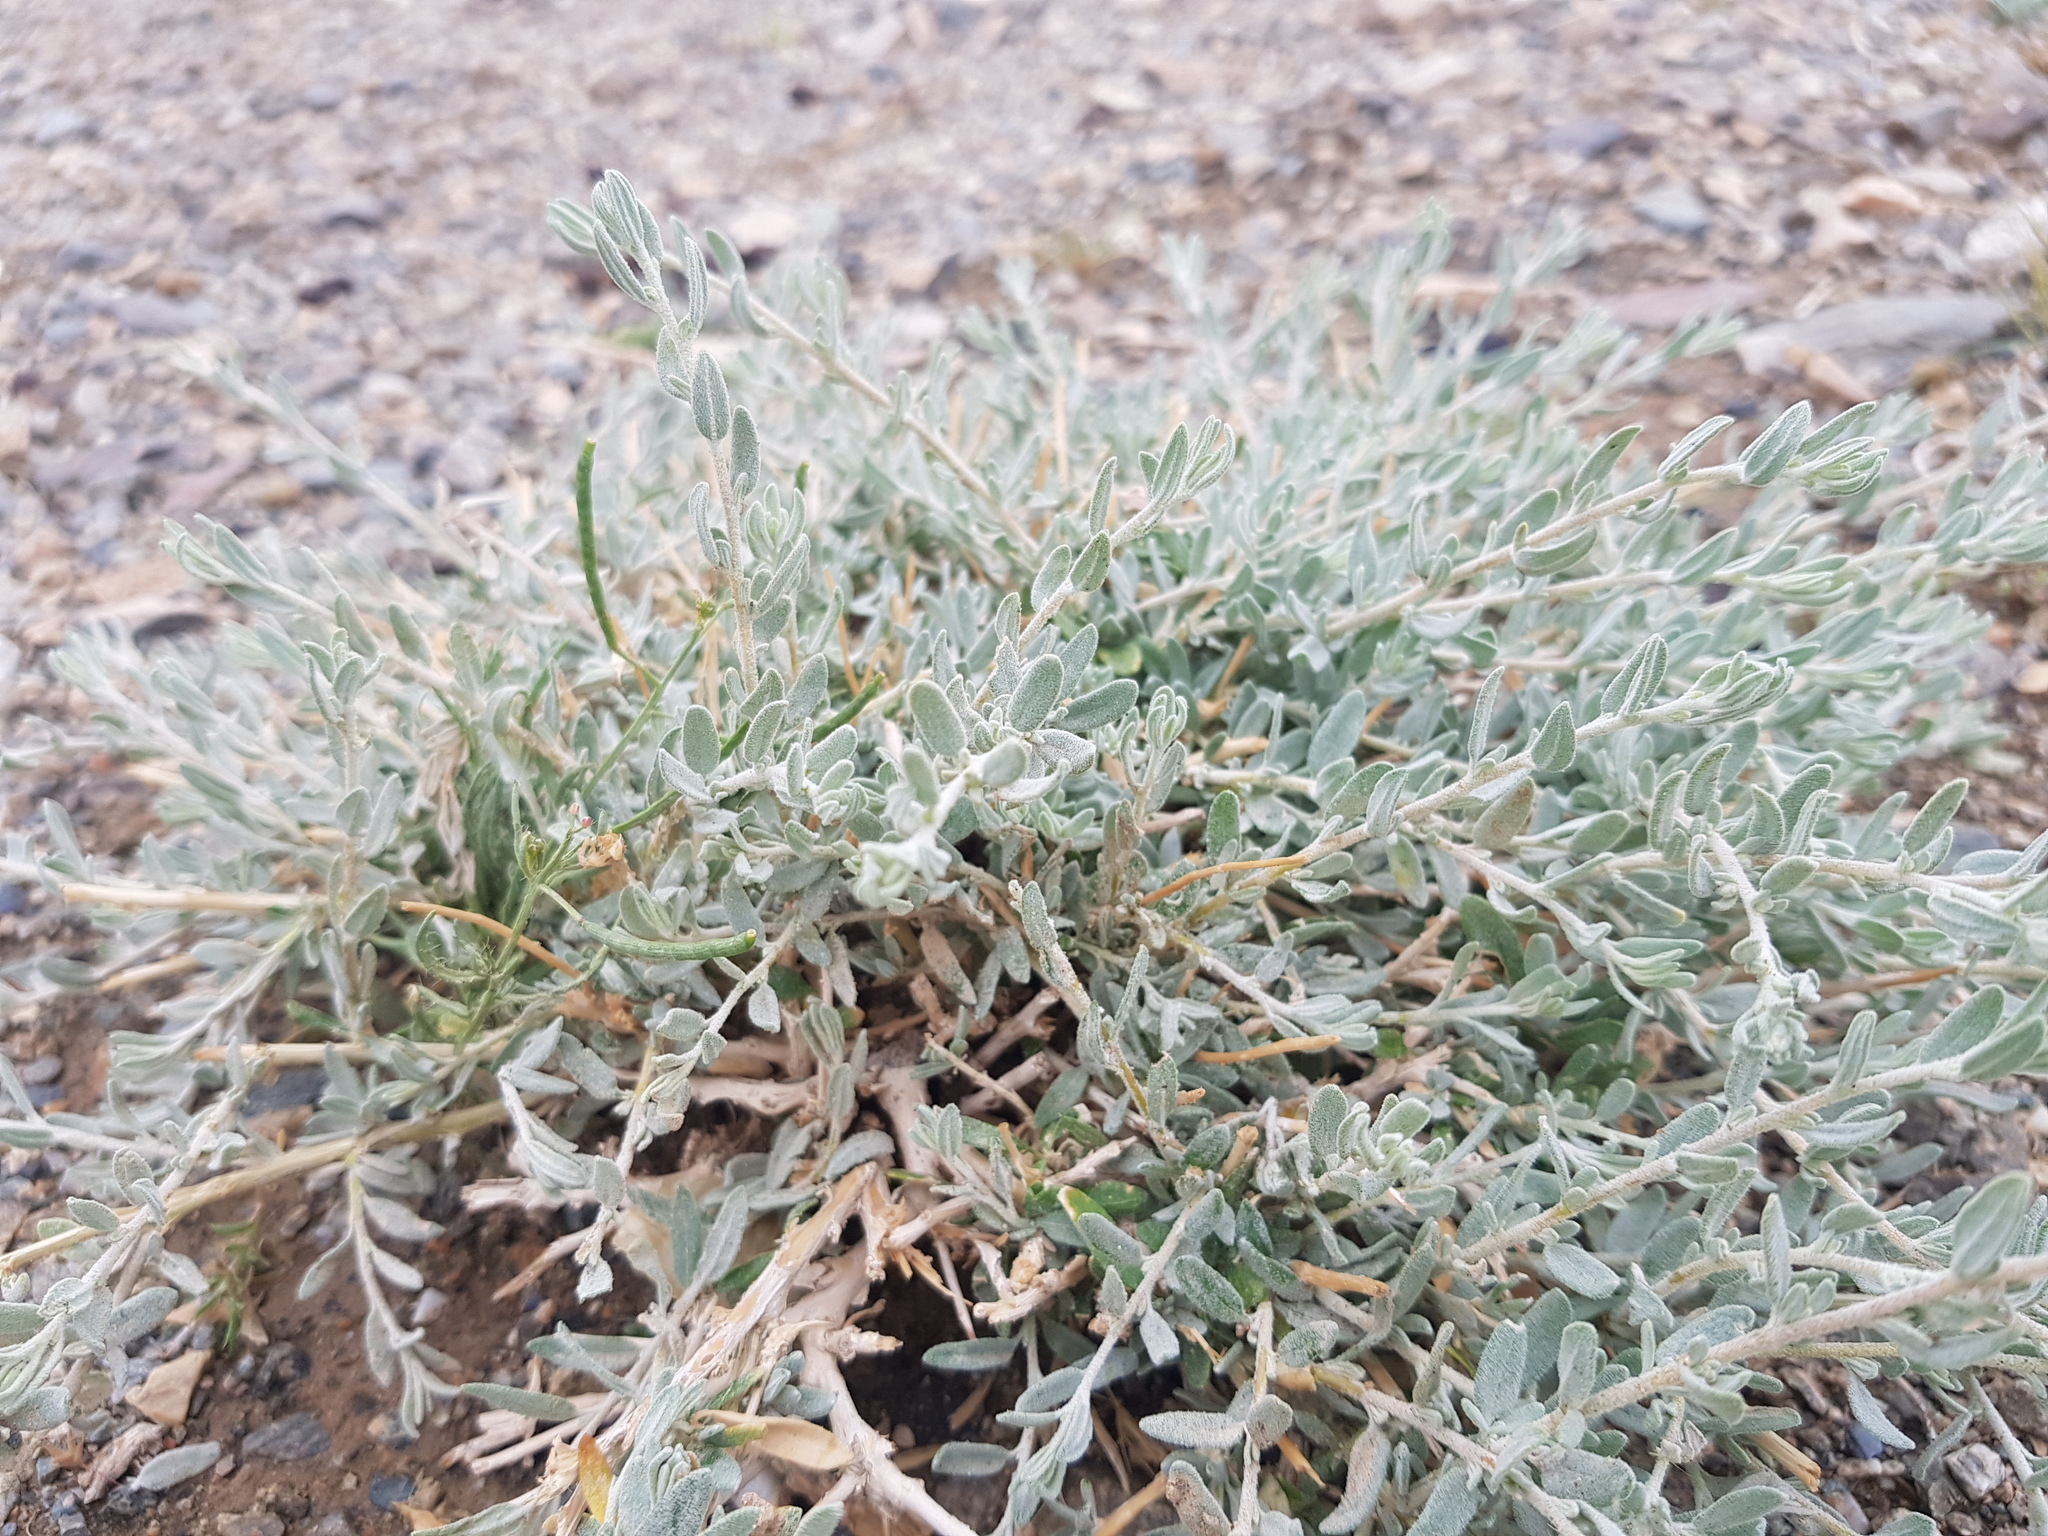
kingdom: Plantae
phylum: Tracheophyta
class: Magnoliopsida
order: Caryophyllales
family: Amaranthaceae
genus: Krascheninnikovia
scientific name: Krascheninnikovia ceratoides
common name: Pamirian winterfat
